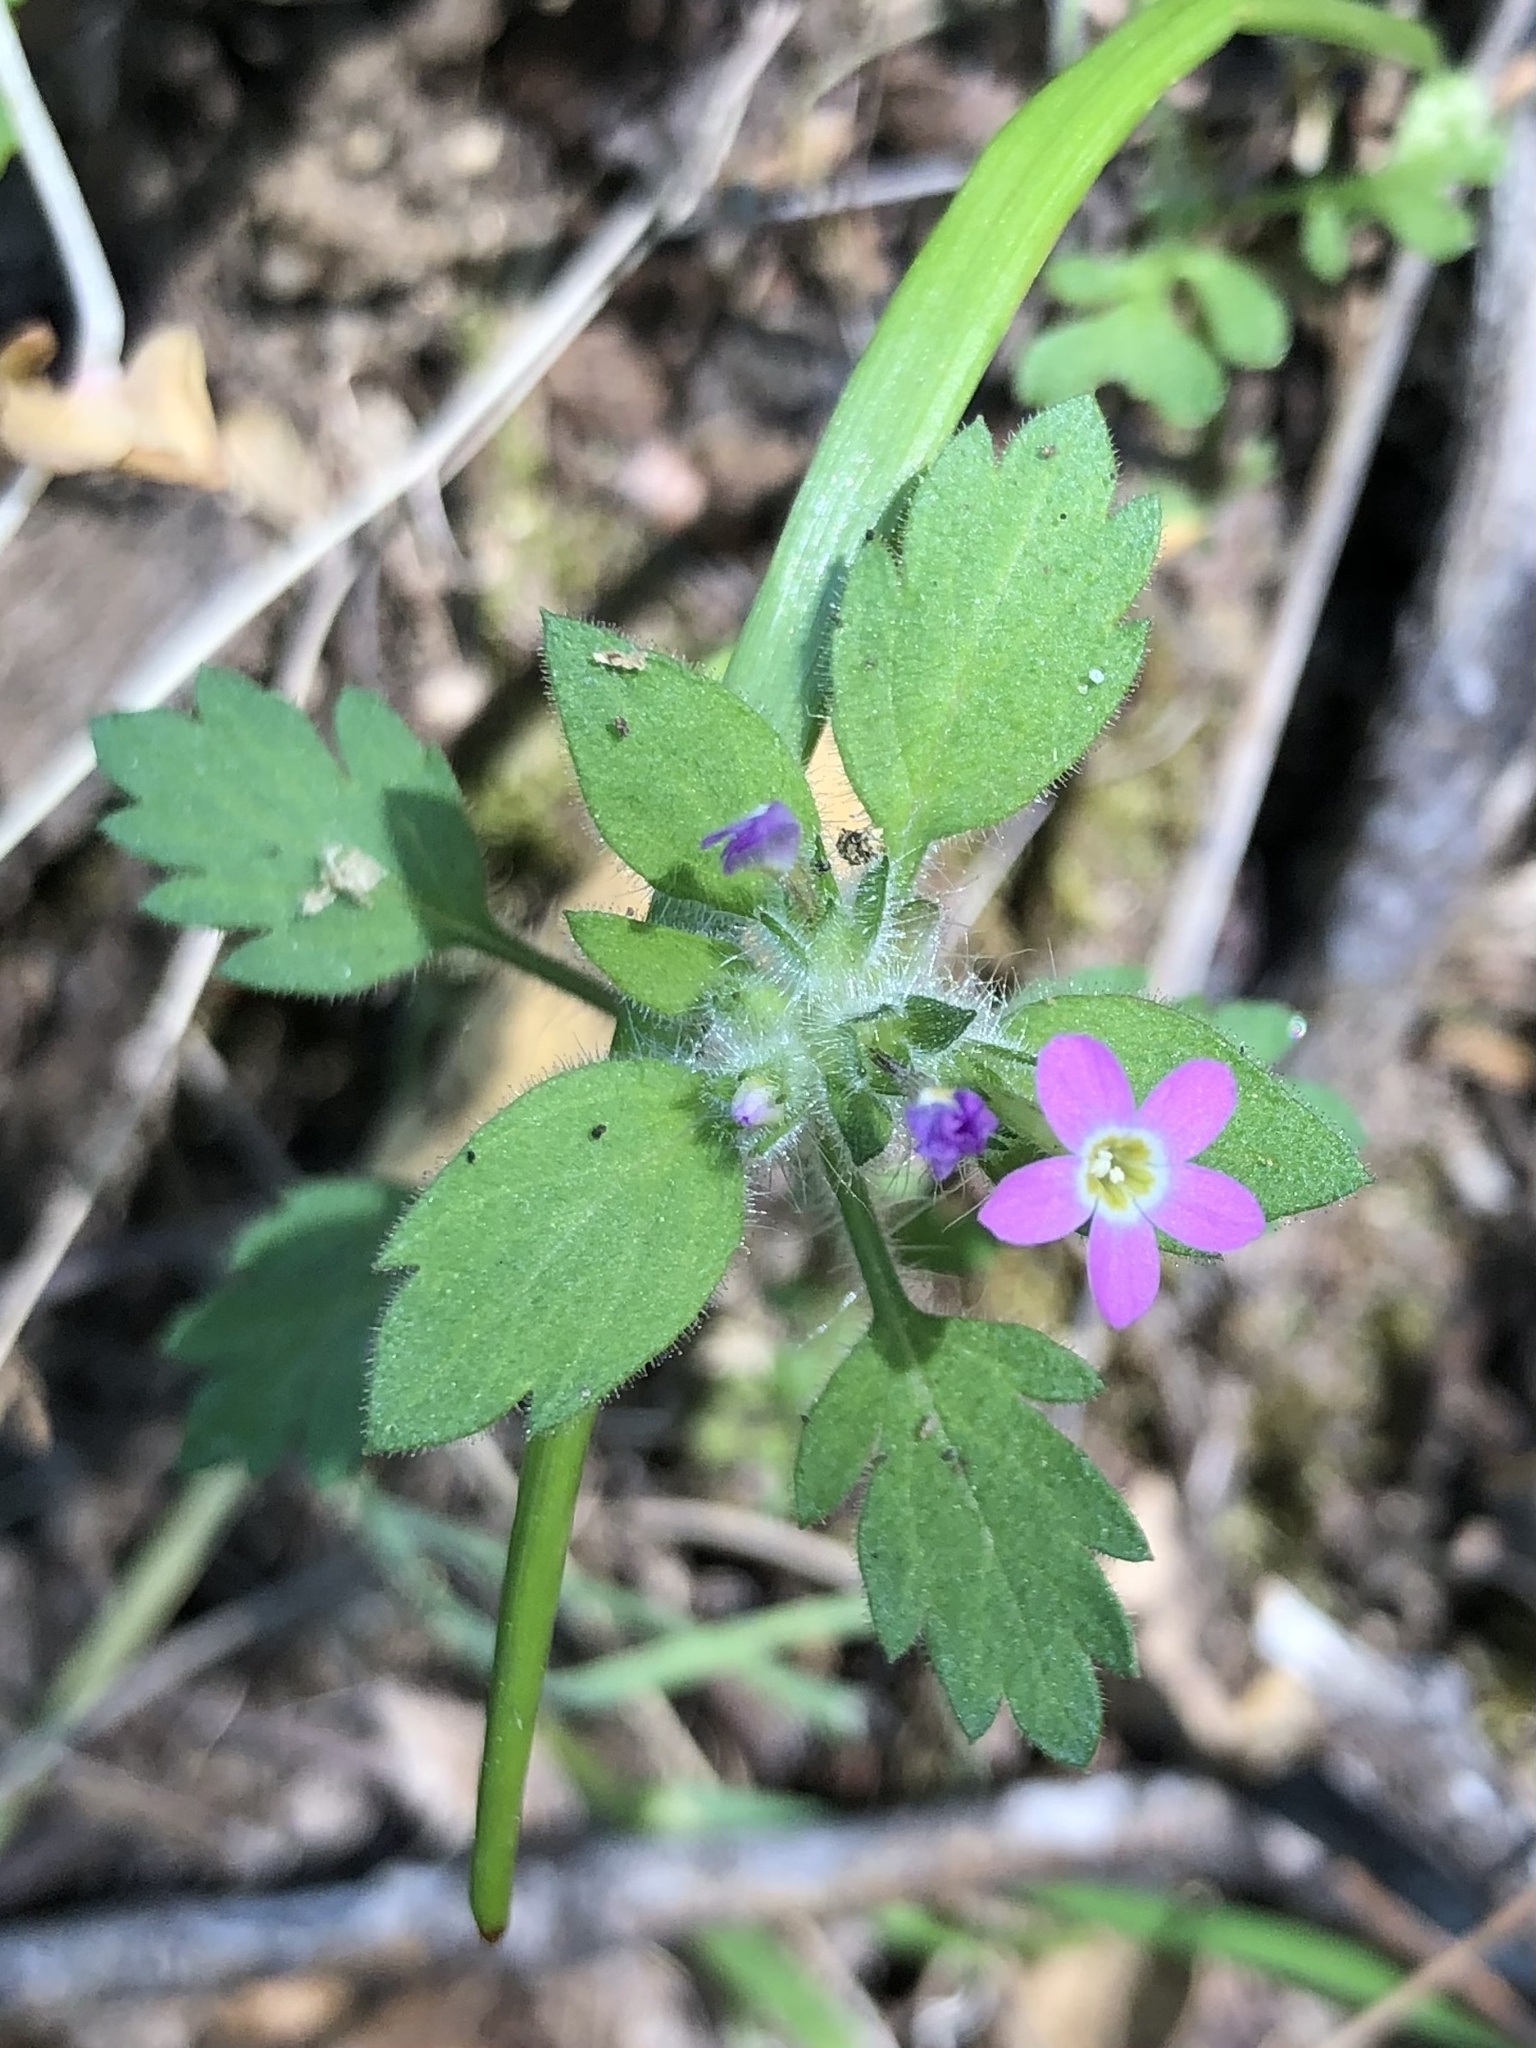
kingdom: Plantae
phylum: Tracheophyta
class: Magnoliopsida
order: Ericales
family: Polemoniaceae
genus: Collomia
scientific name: Collomia heterophylla
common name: Variable-leaved collomia
